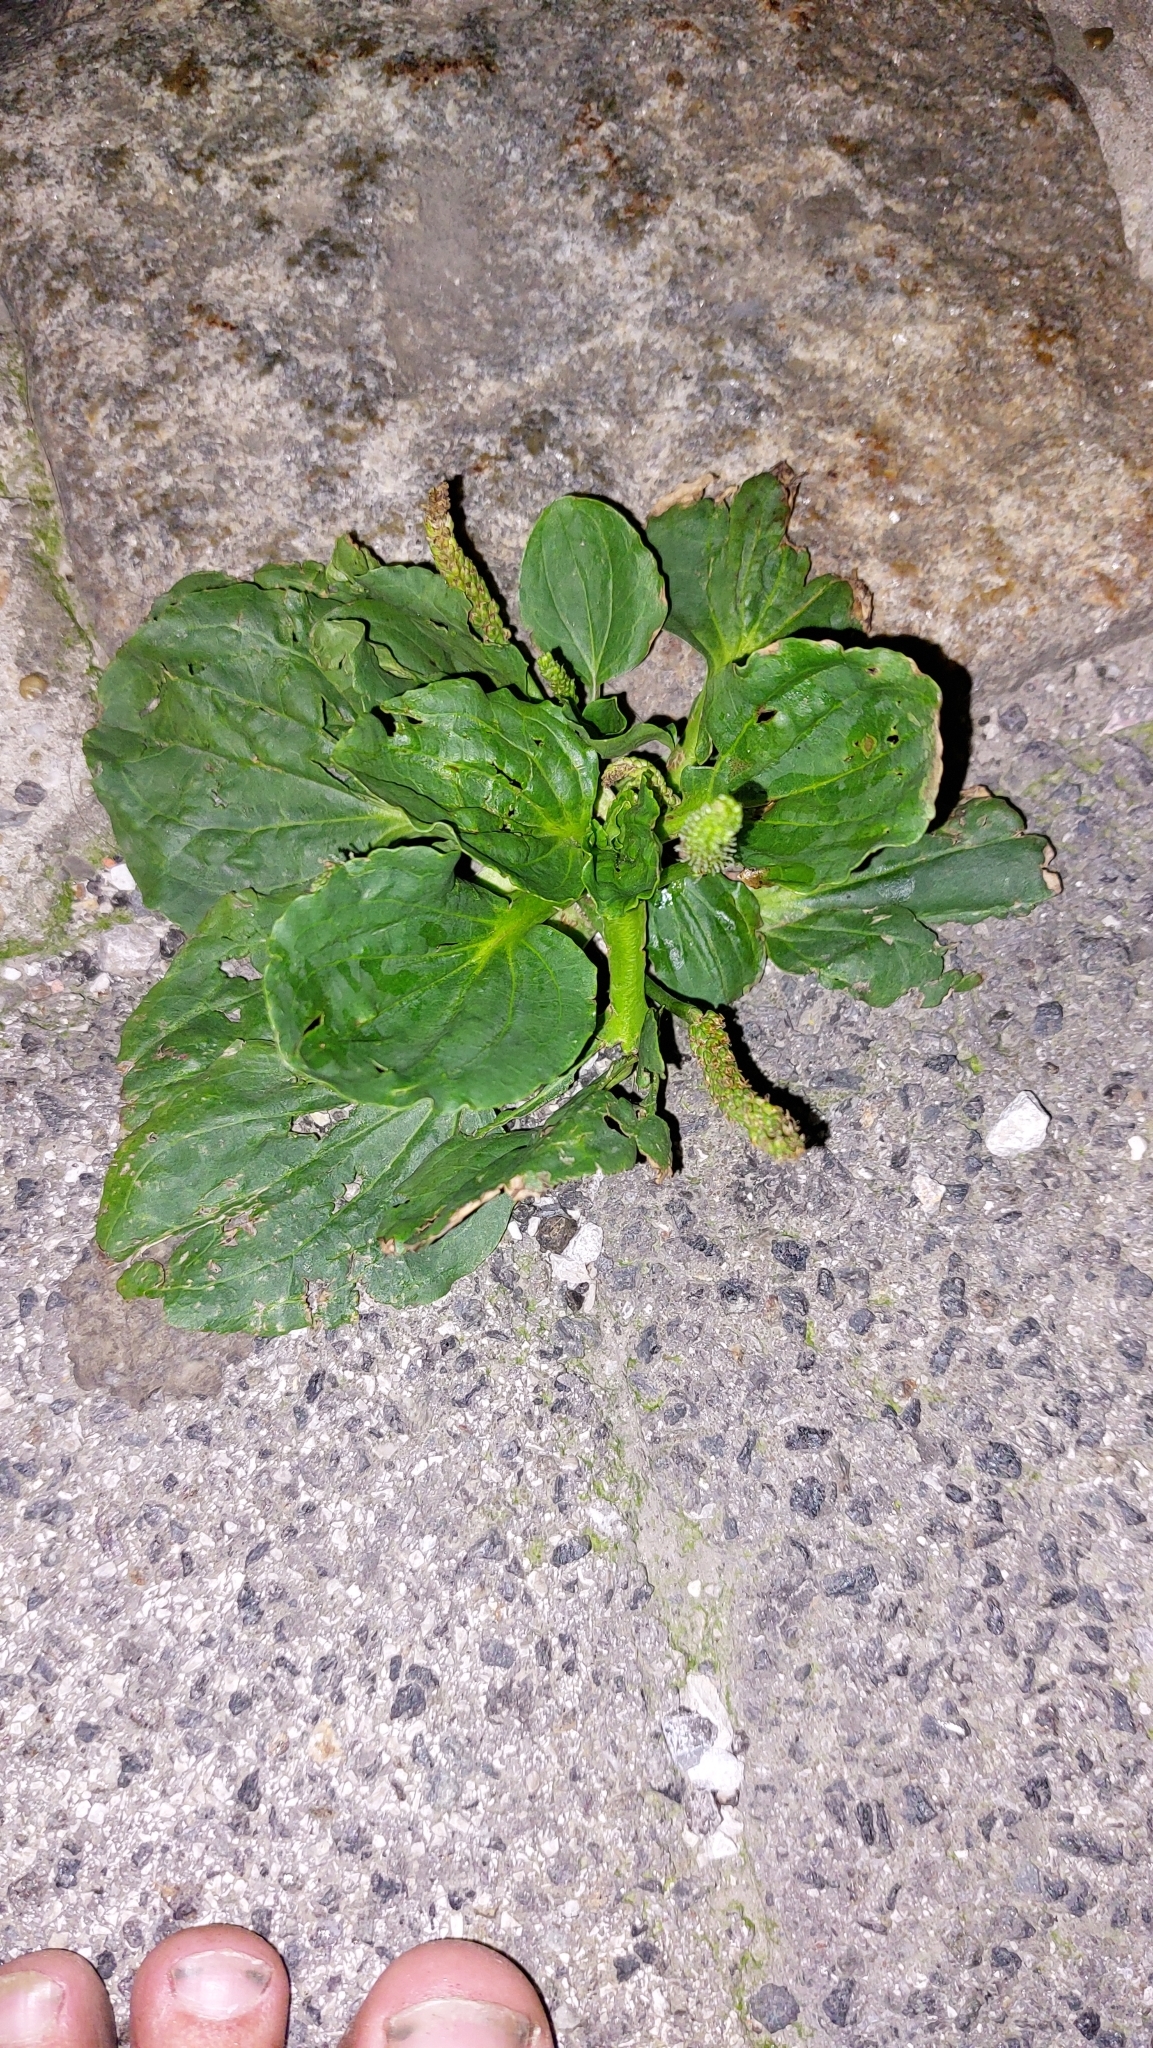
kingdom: Plantae
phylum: Tracheophyta
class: Magnoliopsida
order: Lamiales
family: Plantaginaceae
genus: Plantago
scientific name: Plantago major
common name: Common plantain
